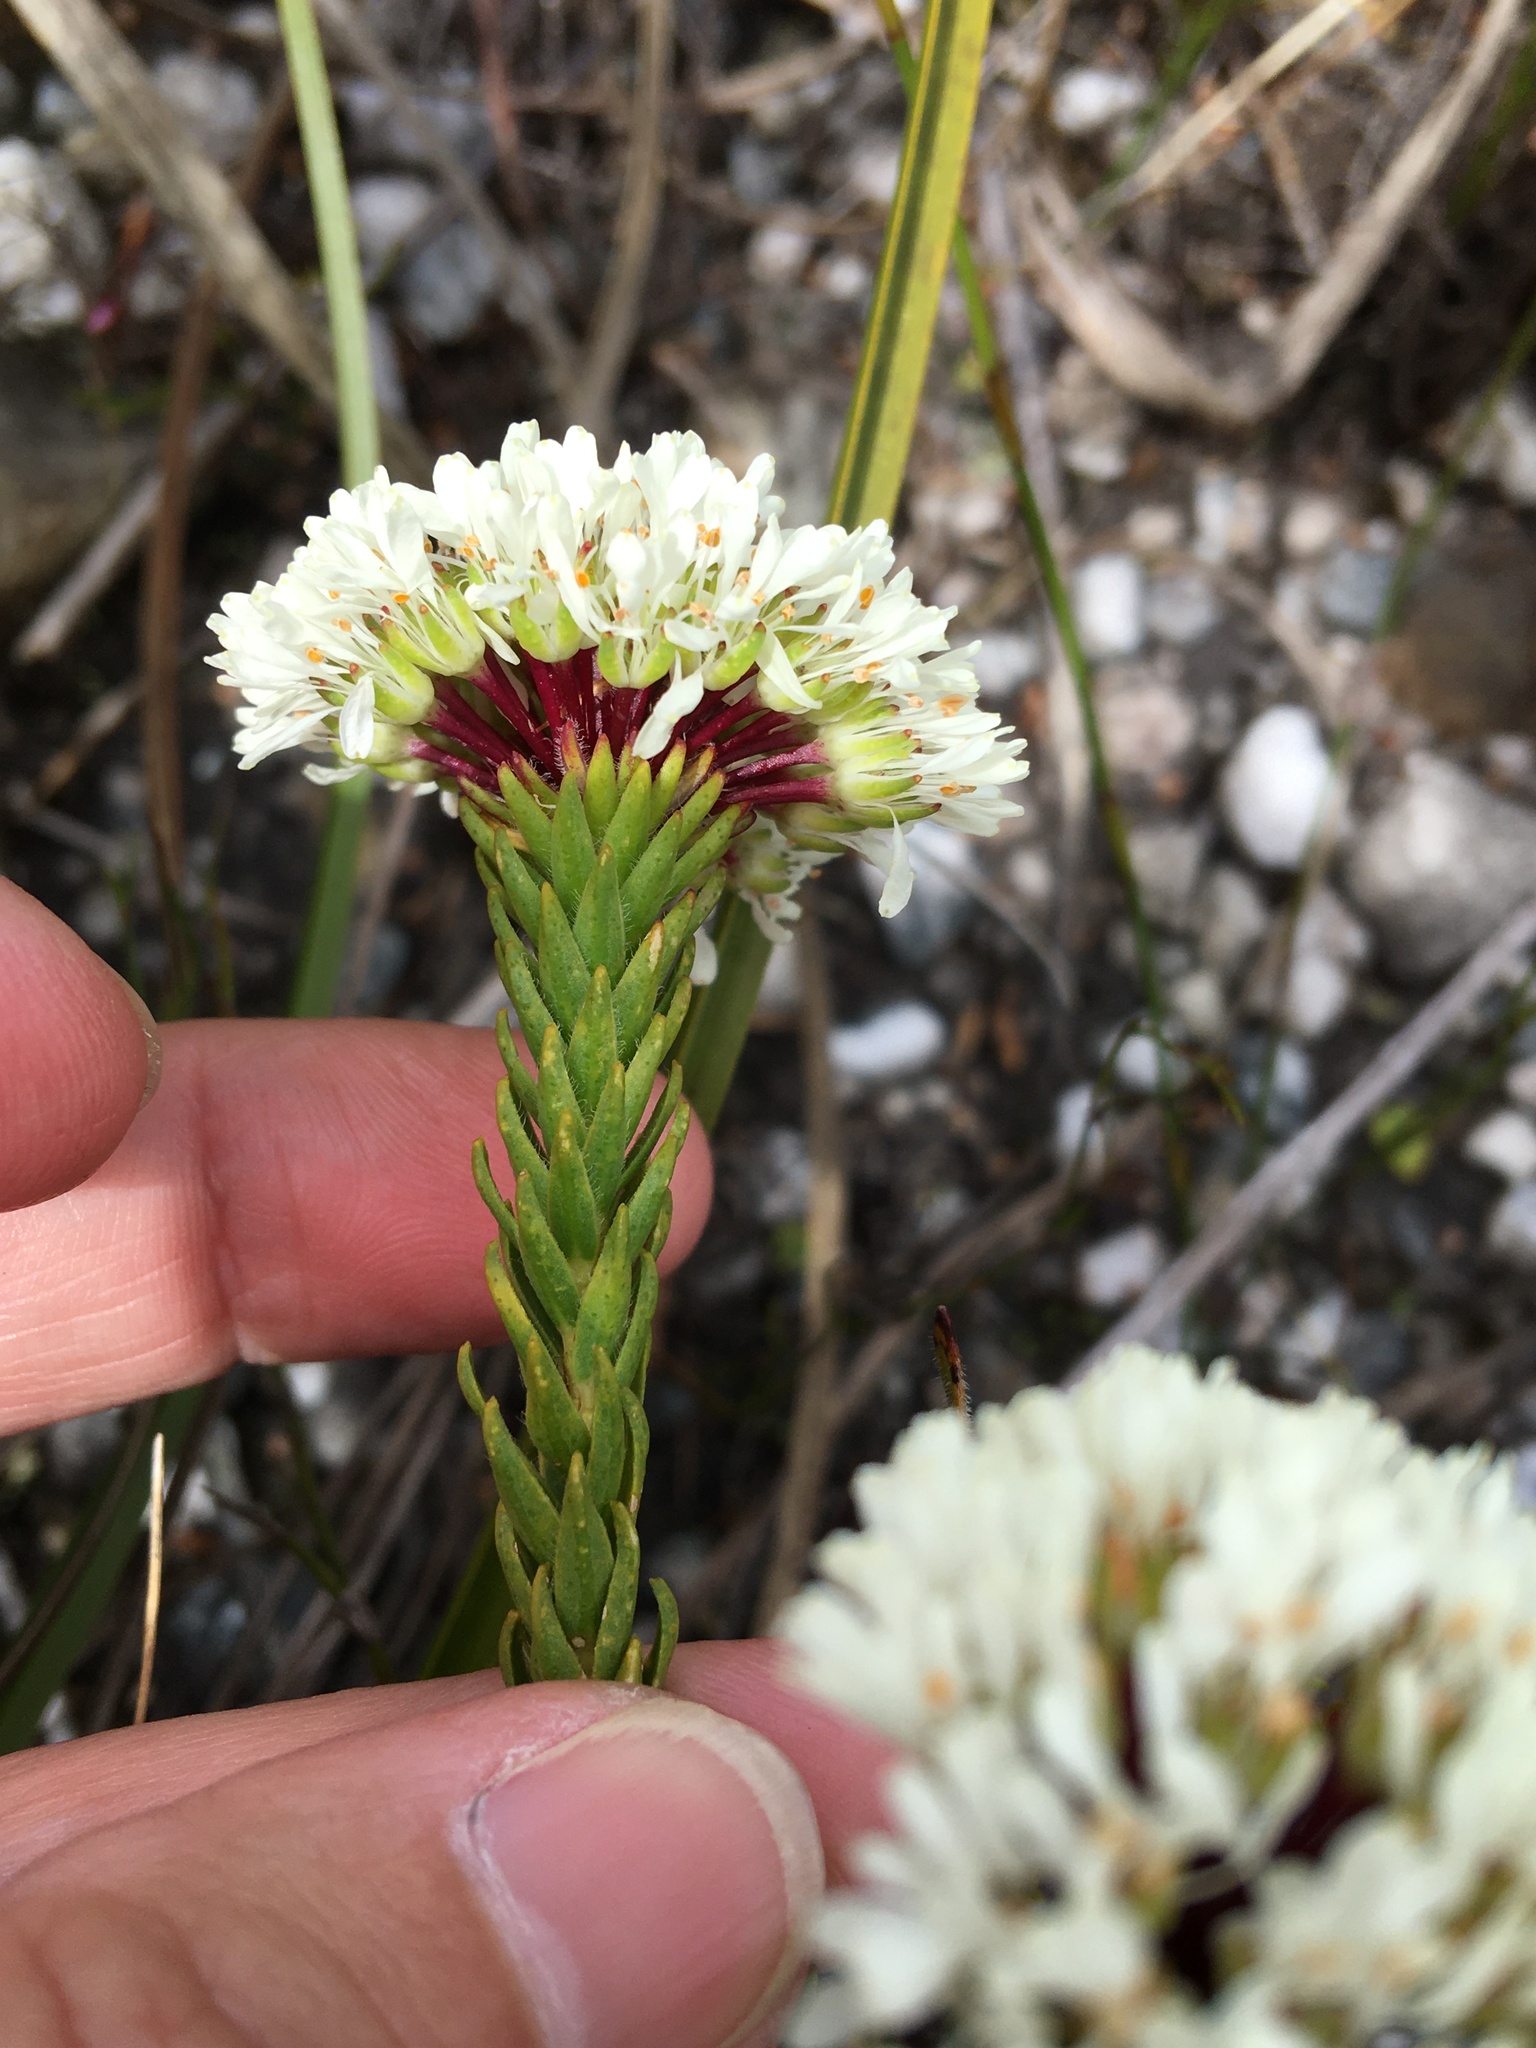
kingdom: Plantae
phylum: Tracheophyta
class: Magnoliopsida
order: Sapindales
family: Rutaceae
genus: Agathosma
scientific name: Agathosma bifida
